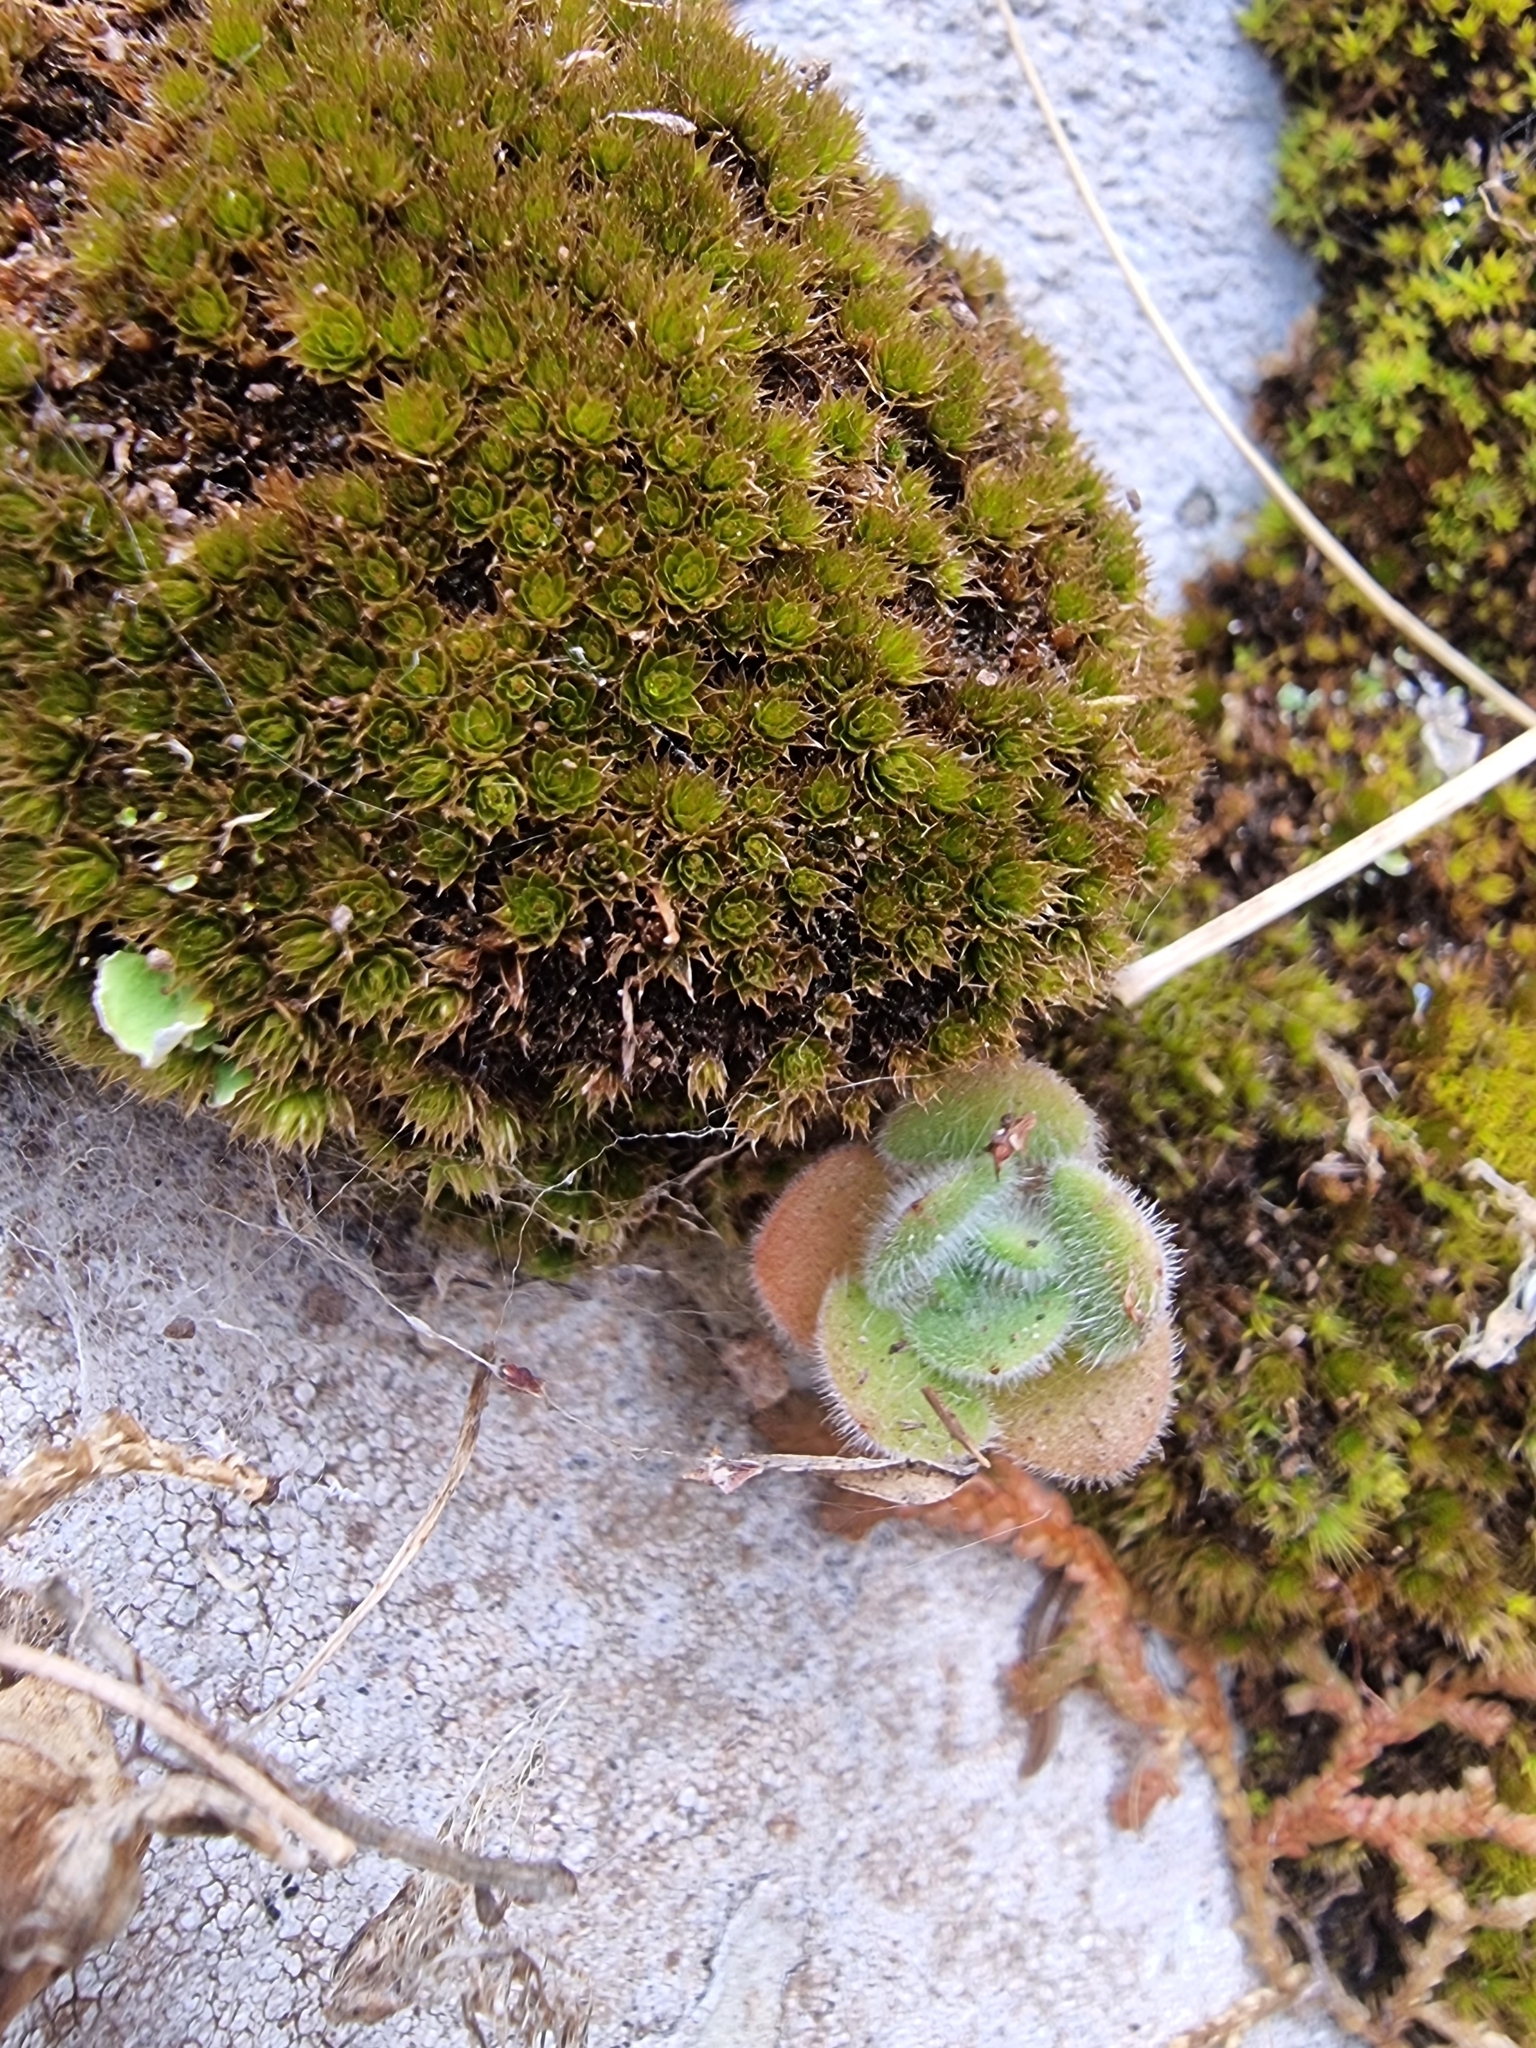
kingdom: Plantae
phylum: Tracheophyta
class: Magnoliopsida
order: Saxifragales
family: Crassulaceae
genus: Aichryson
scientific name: Aichryson villosum
